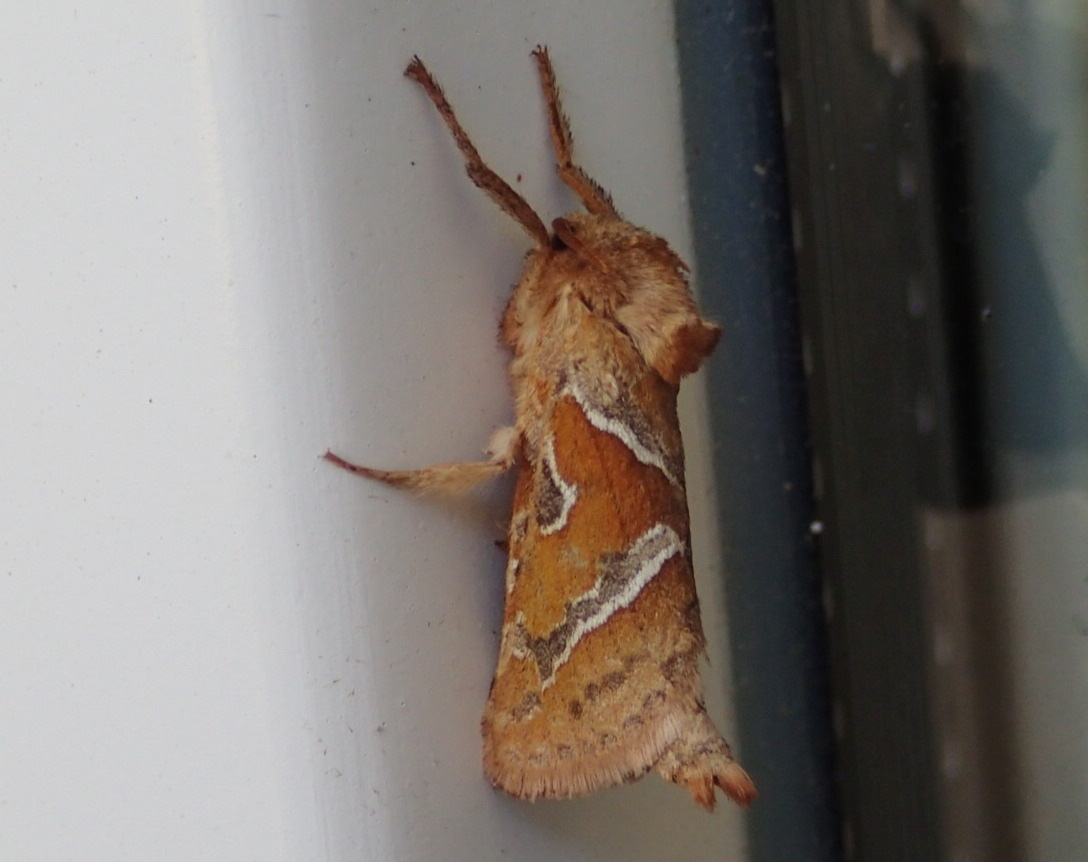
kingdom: Animalia
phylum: Arthropoda
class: Insecta
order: Lepidoptera
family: Hepialidae
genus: Triodia
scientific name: Triodia sylvina
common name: Orange swift
